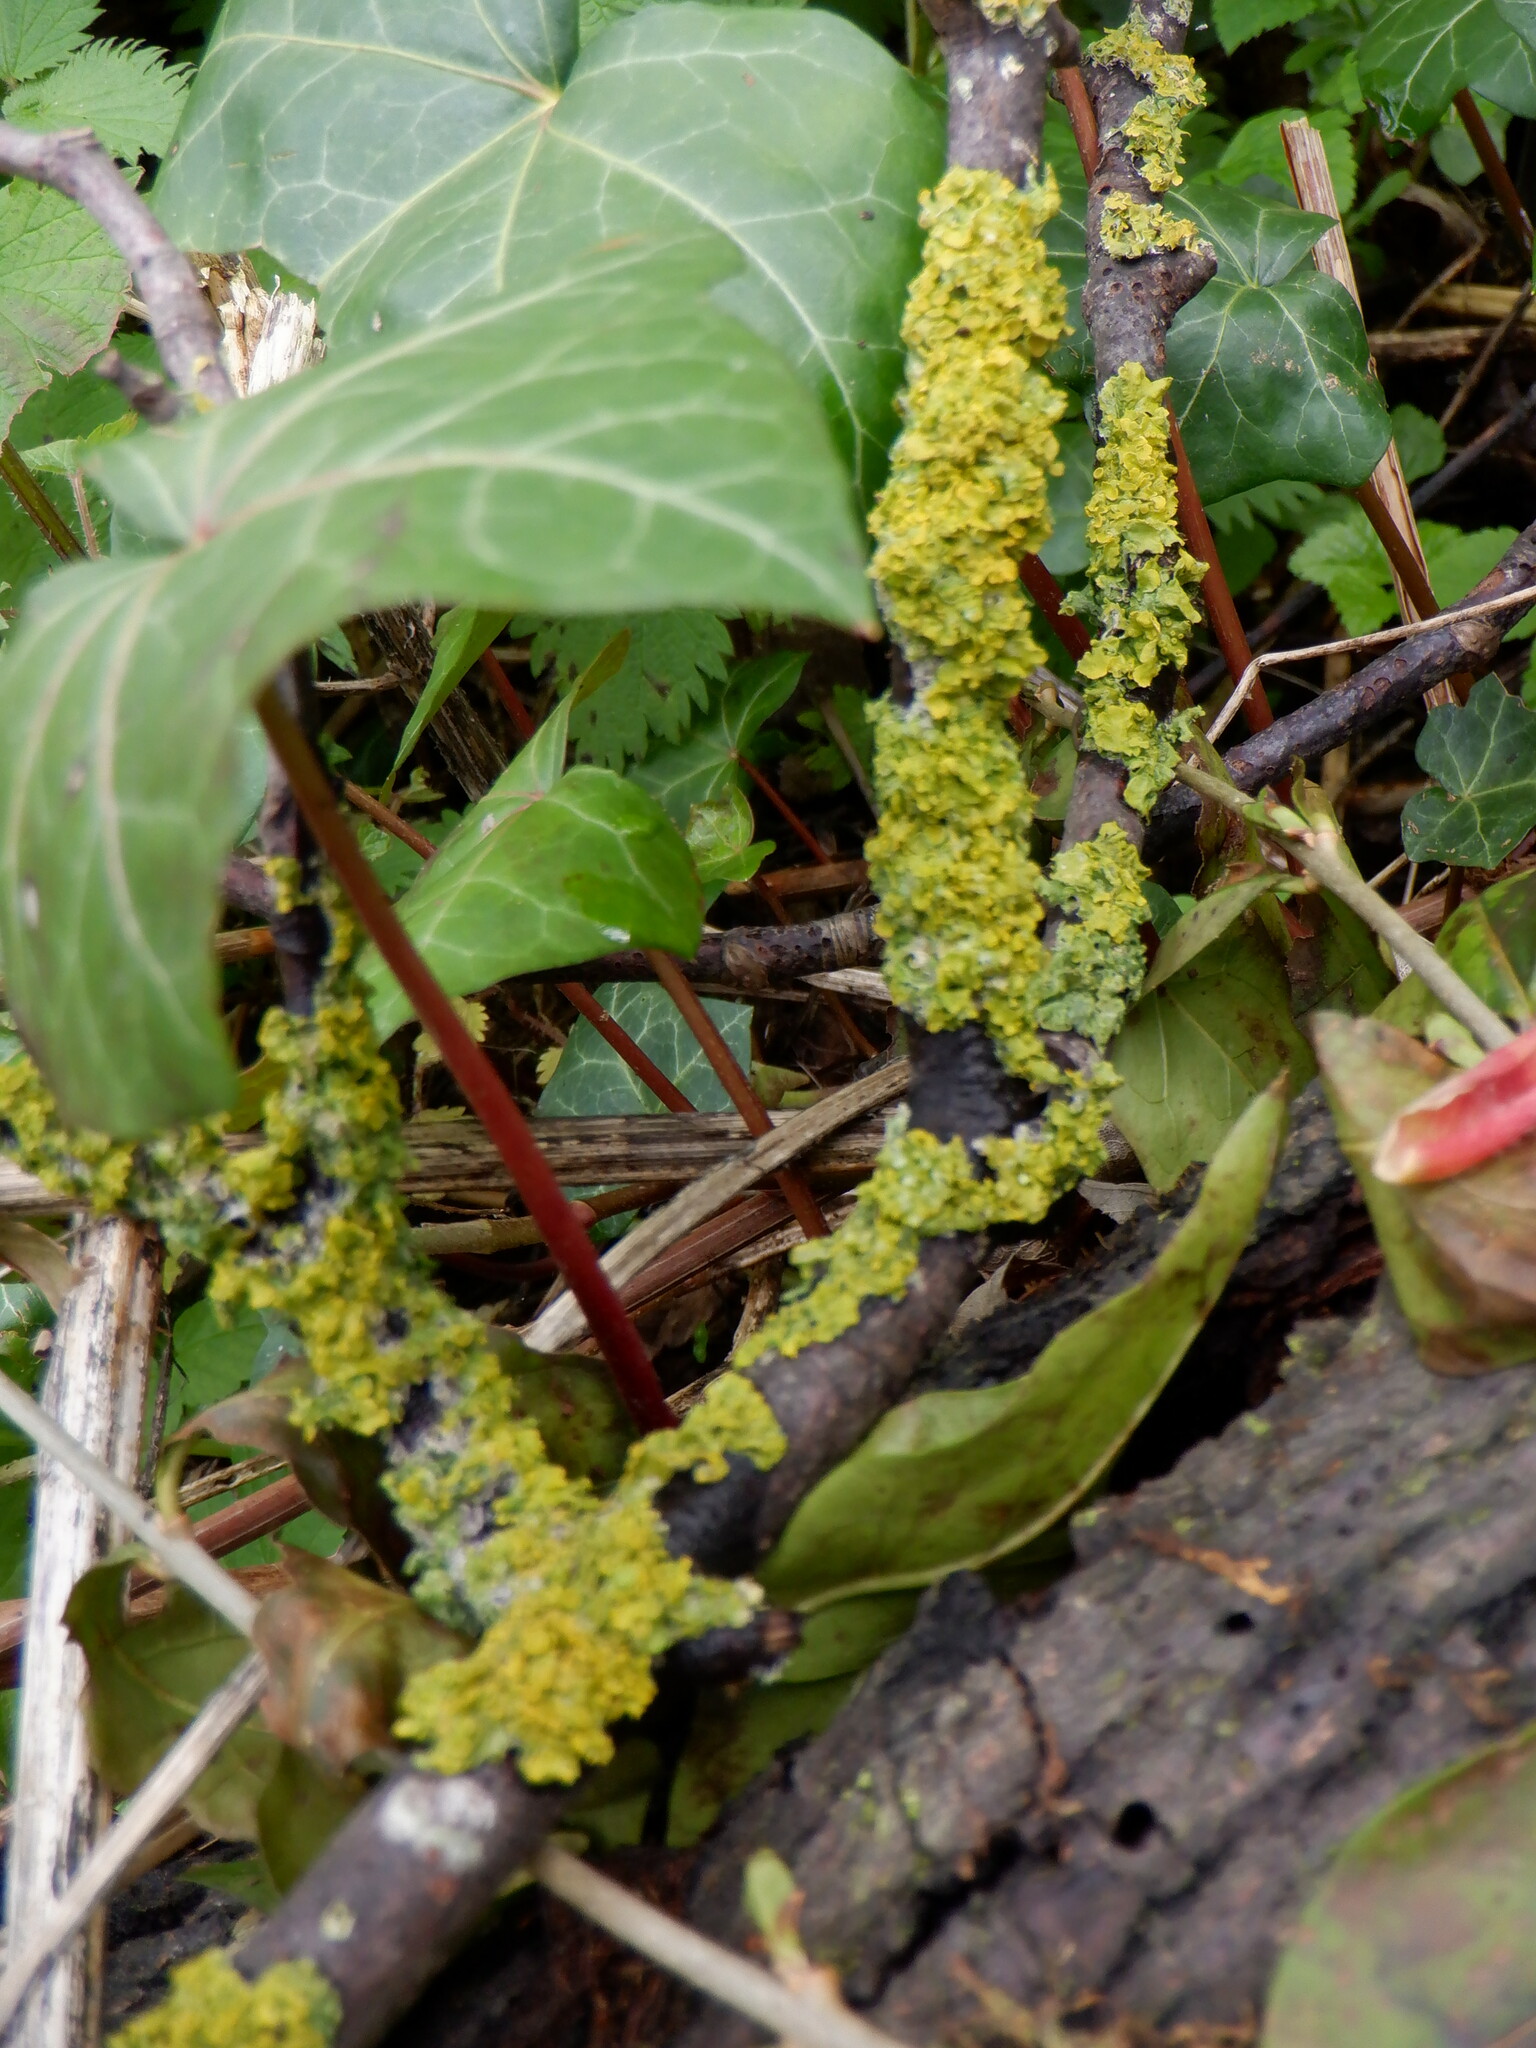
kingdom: Fungi
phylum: Ascomycota
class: Lecanoromycetes
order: Teloschistales
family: Teloschistaceae
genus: Xanthoria
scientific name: Xanthoria parietina
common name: Common orange lichen
